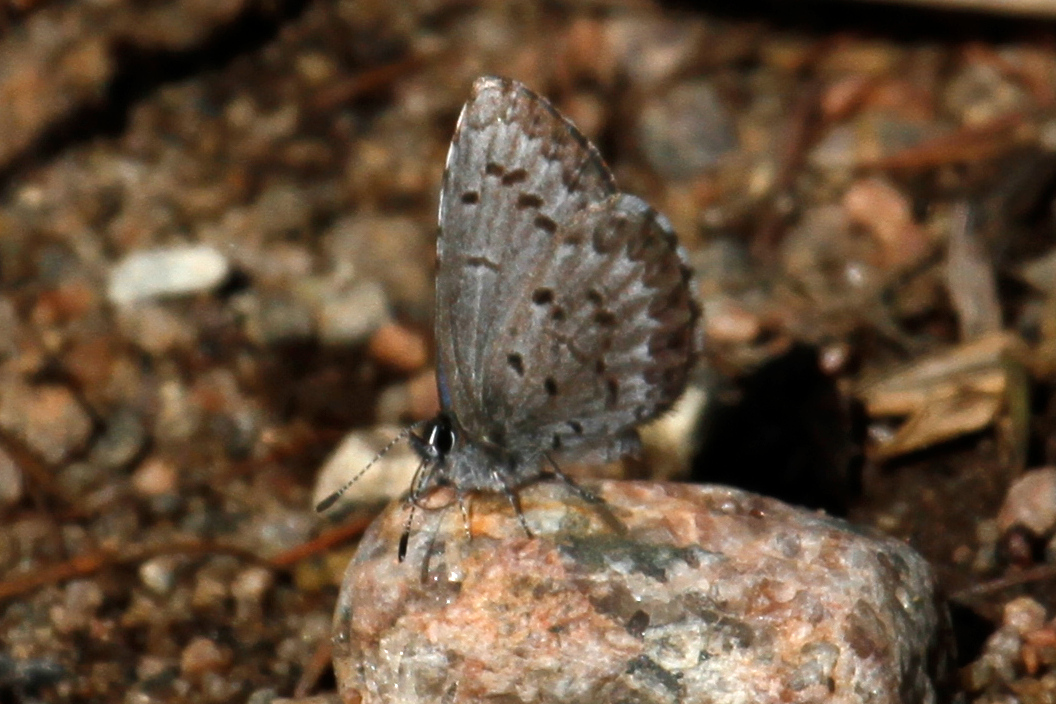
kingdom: Animalia
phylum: Arthropoda
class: Insecta
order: Lepidoptera
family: Lycaenidae
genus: Celastrina
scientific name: Celastrina lucia
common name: Lucia azure
